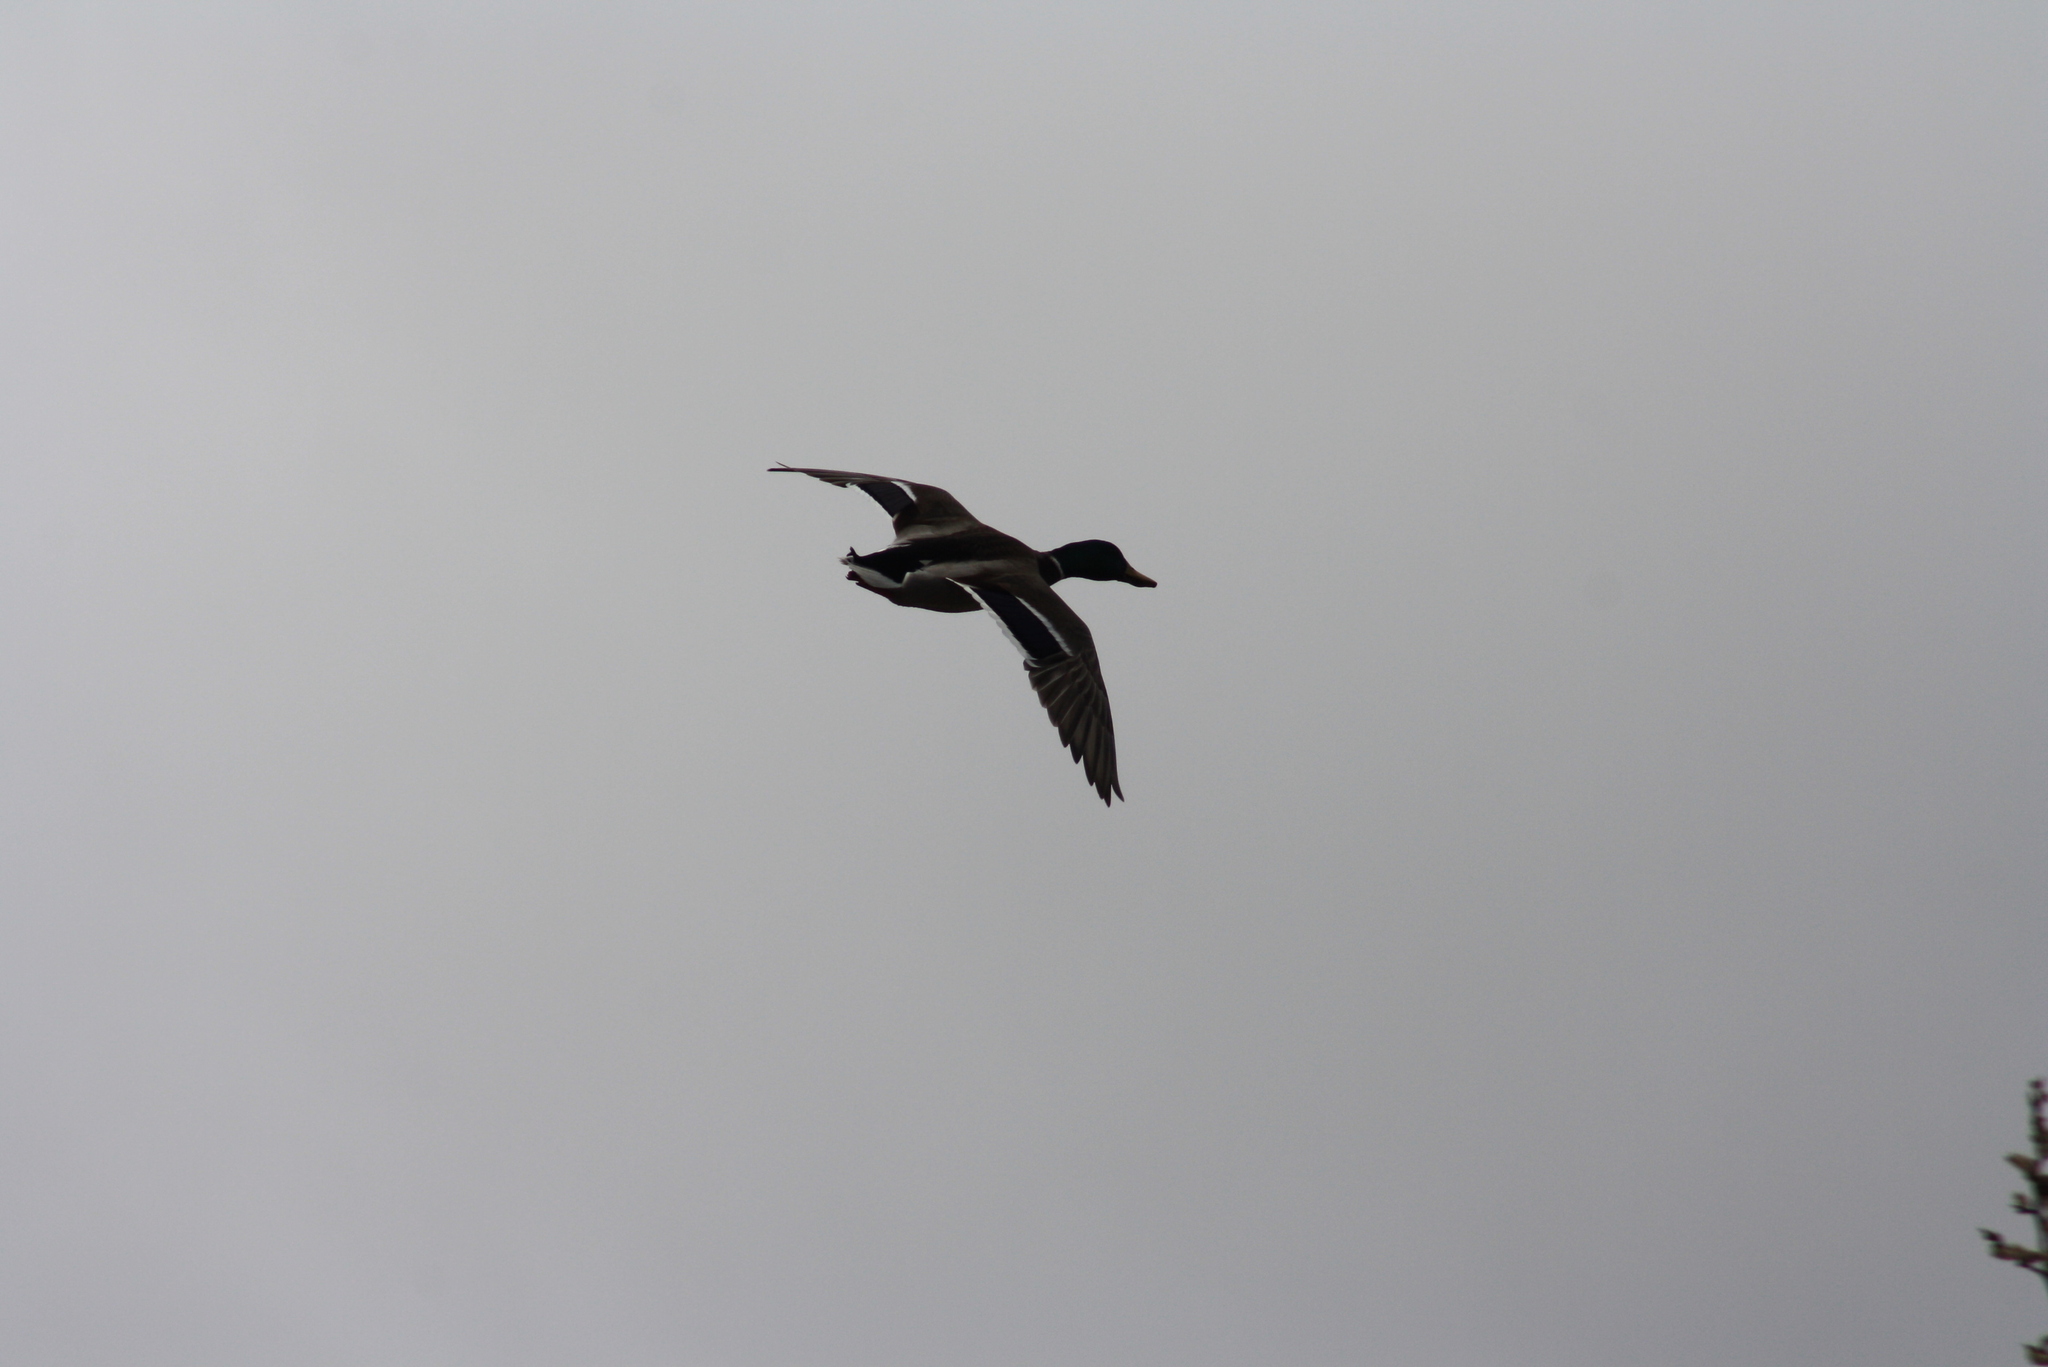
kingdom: Animalia
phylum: Chordata
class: Aves
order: Anseriformes
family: Anatidae
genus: Anas
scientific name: Anas platyrhynchos
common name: Mallard
